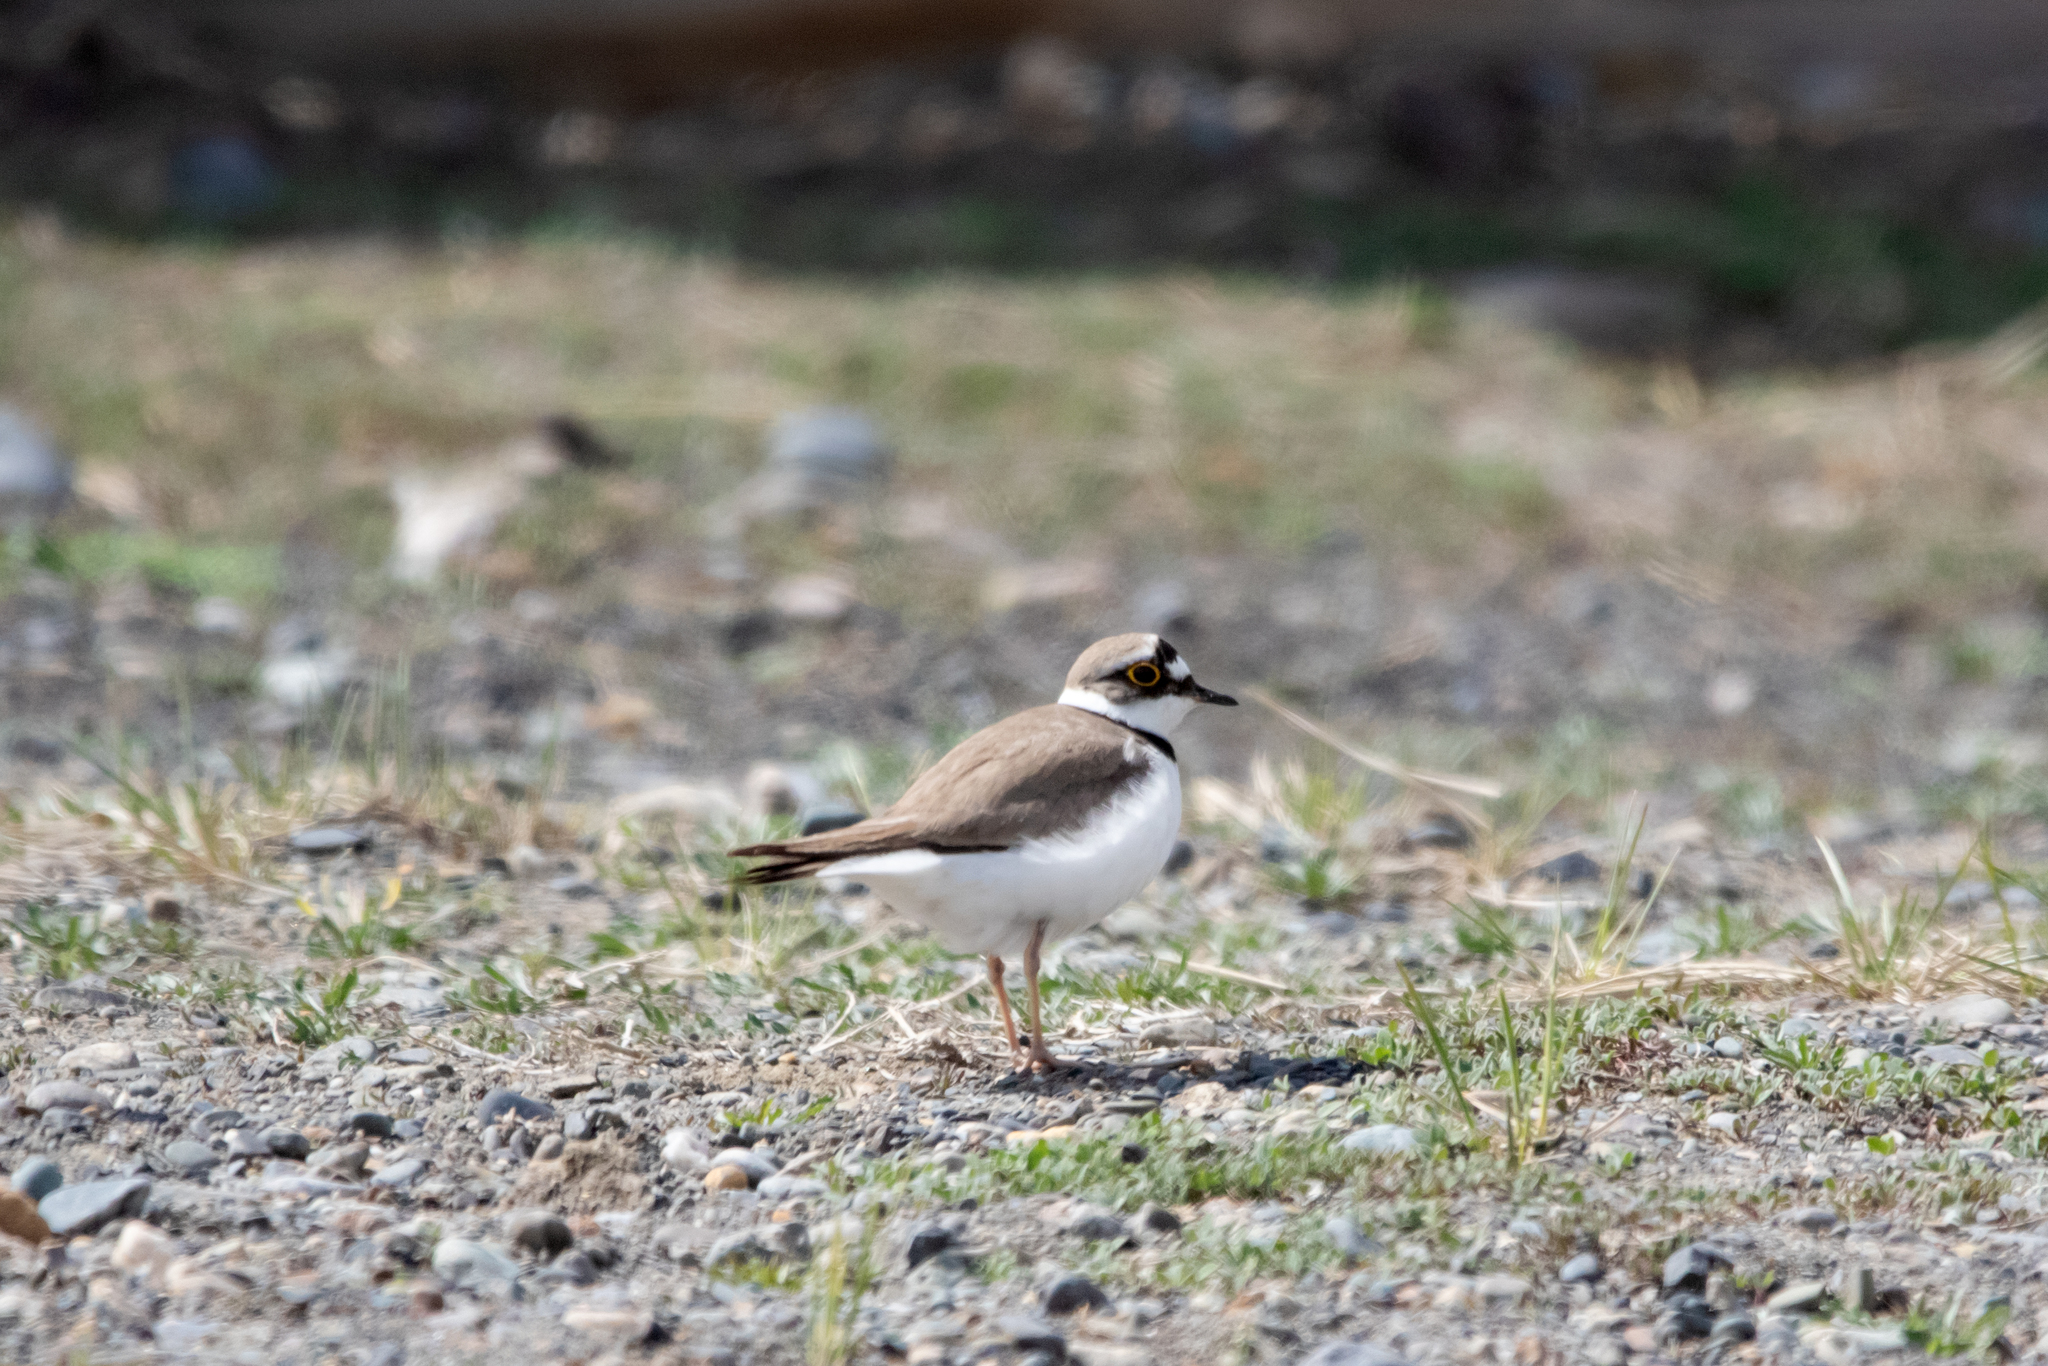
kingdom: Animalia
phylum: Chordata
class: Aves
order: Charadriiformes
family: Charadriidae
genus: Charadrius
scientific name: Charadrius dubius
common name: Little ringed plover
